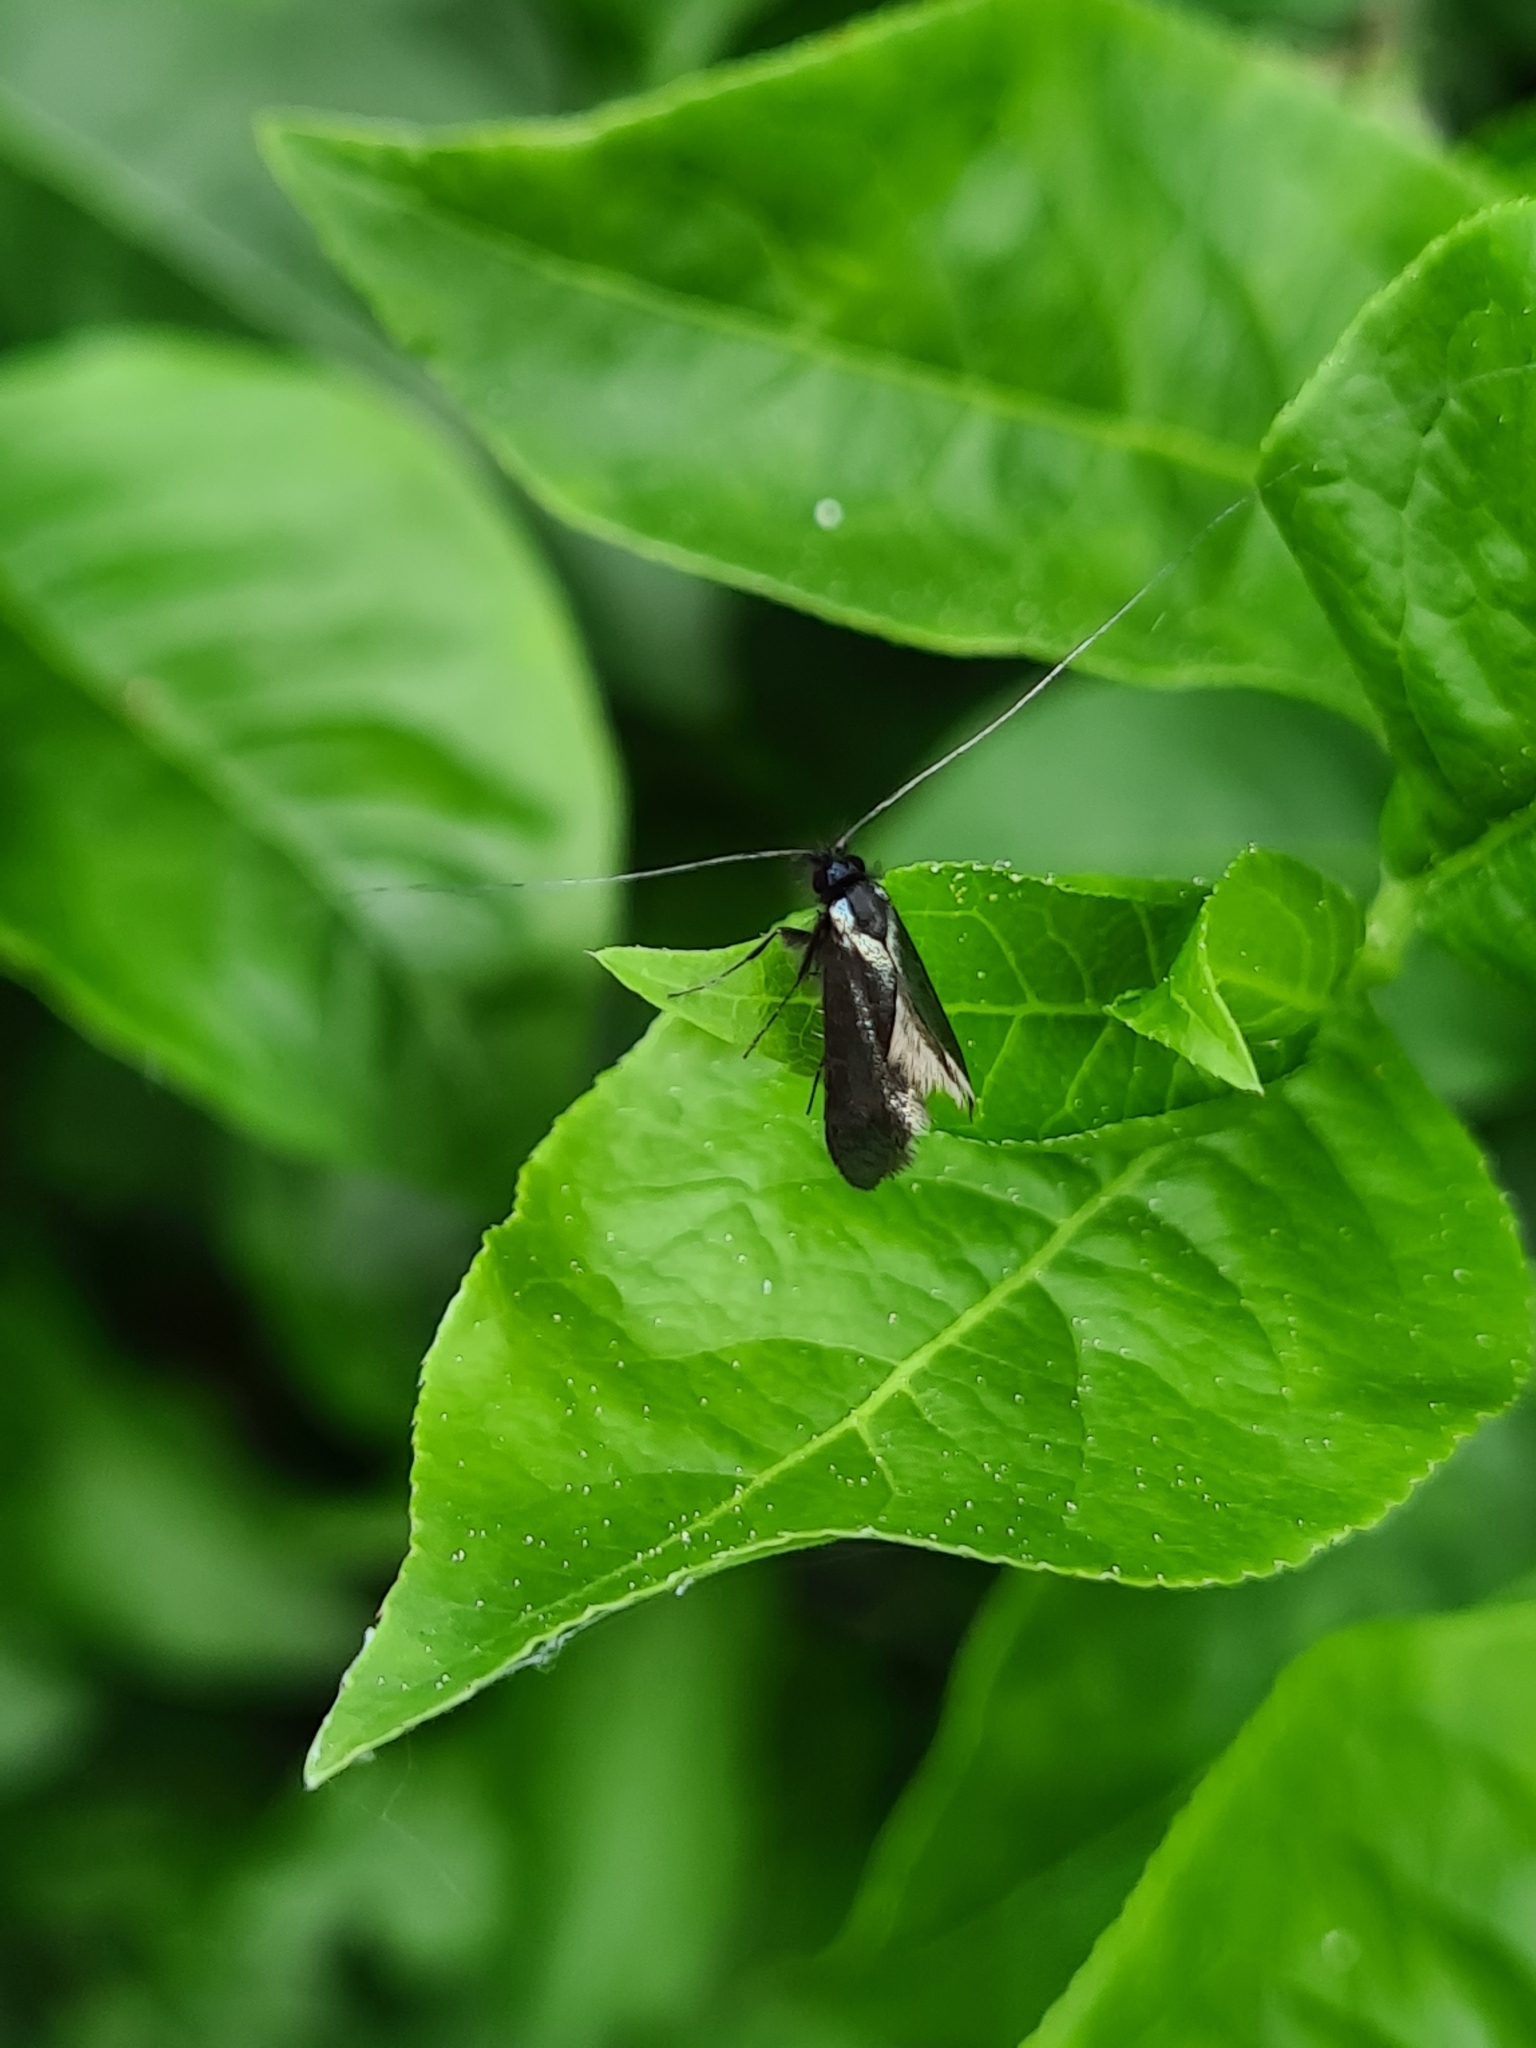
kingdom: Animalia
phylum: Arthropoda
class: Insecta
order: Lepidoptera
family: Adelidae
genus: Adela
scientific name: Adela viridella
